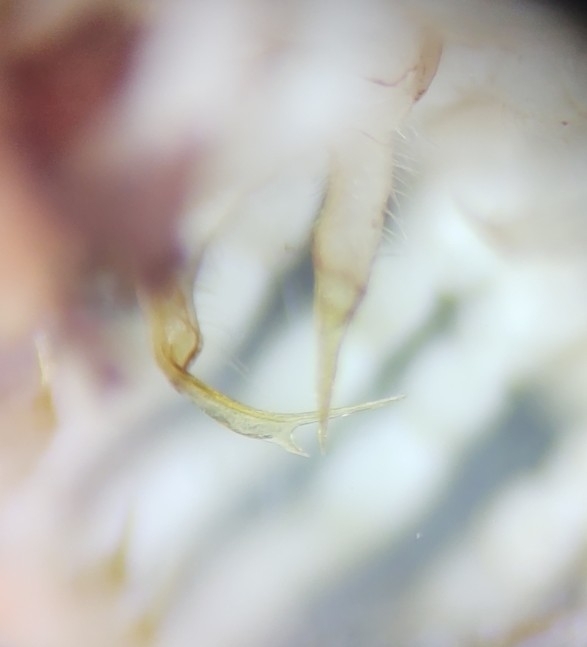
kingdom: Animalia
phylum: Arthropoda
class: Diplopoda
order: Polydesmida
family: Xystodesmidae
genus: Euryurus
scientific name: Euryurus maculatus
